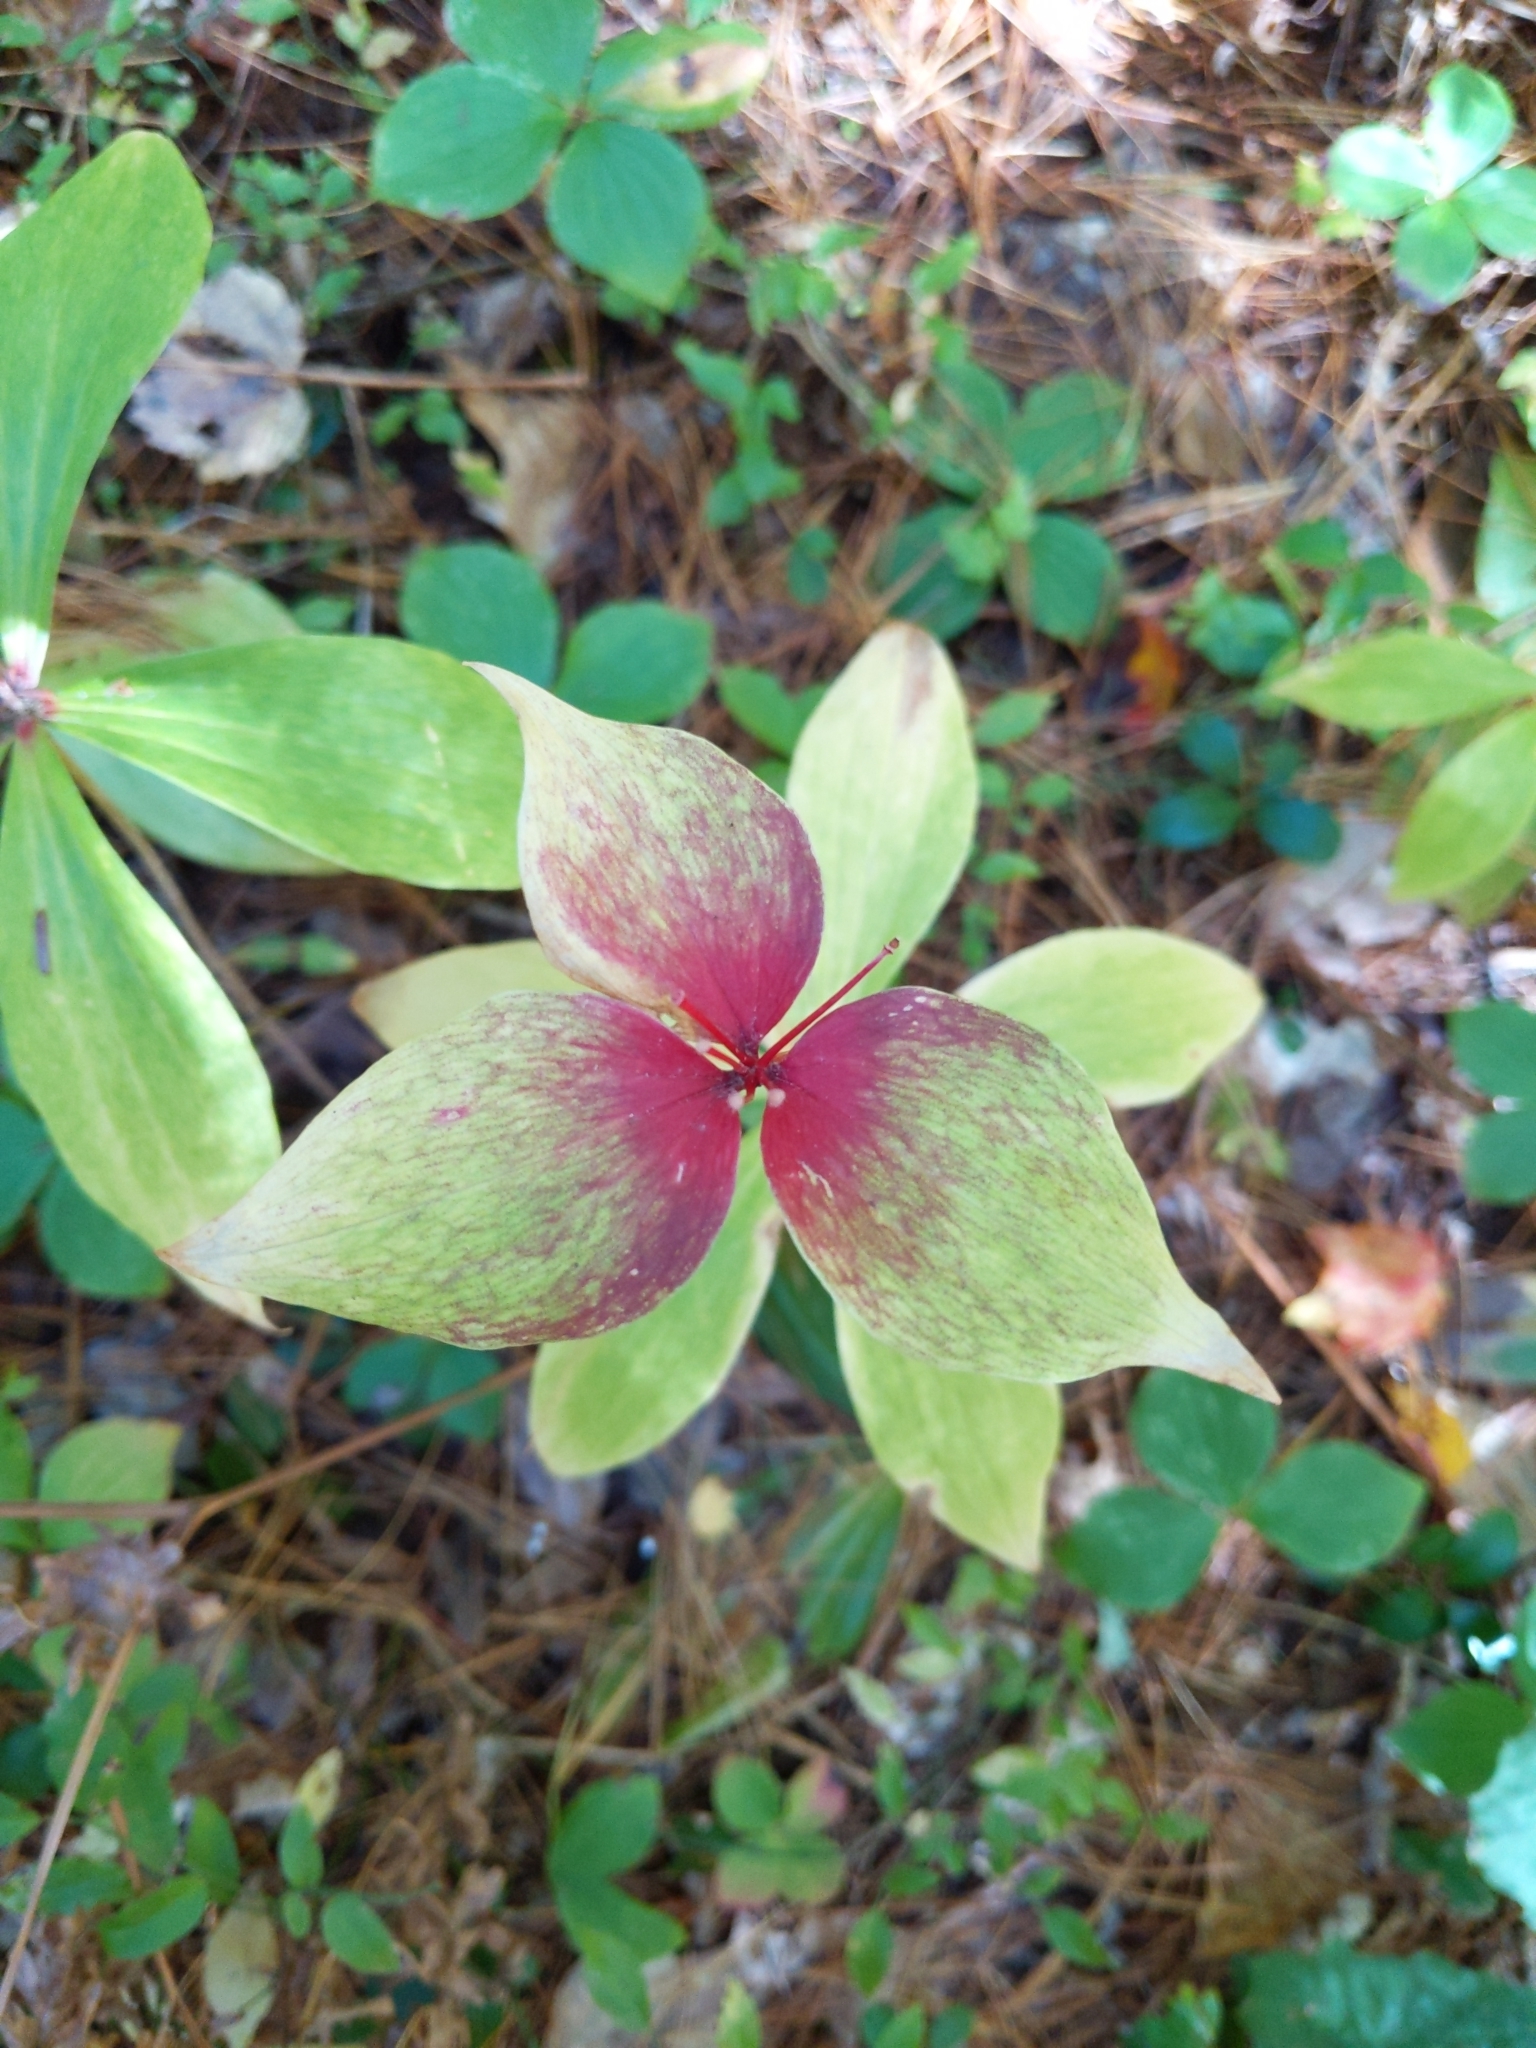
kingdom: Plantae
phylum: Tracheophyta
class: Liliopsida
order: Liliales
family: Liliaceae
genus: Medeola
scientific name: Medeola virginiana
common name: Indian cucumber-root
